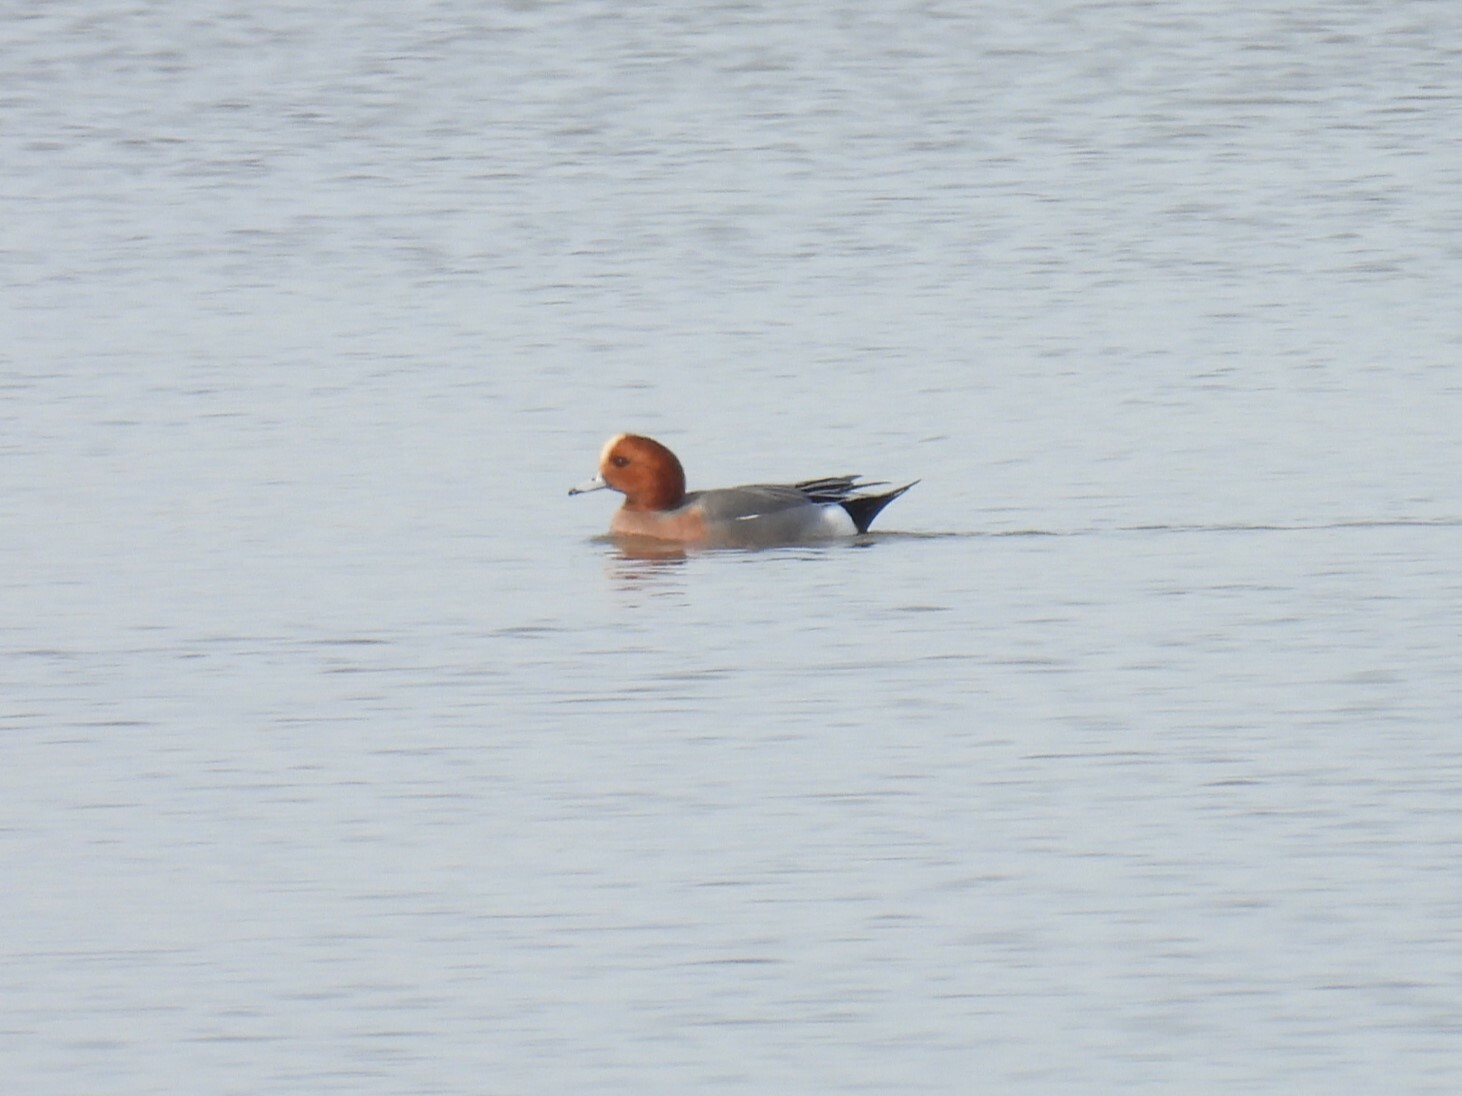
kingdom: Animalia
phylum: Chordata
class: Aves
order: Anseriformes
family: Anatidae
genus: Mareca
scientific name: Mareca penelope
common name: Eurasian wigeon
